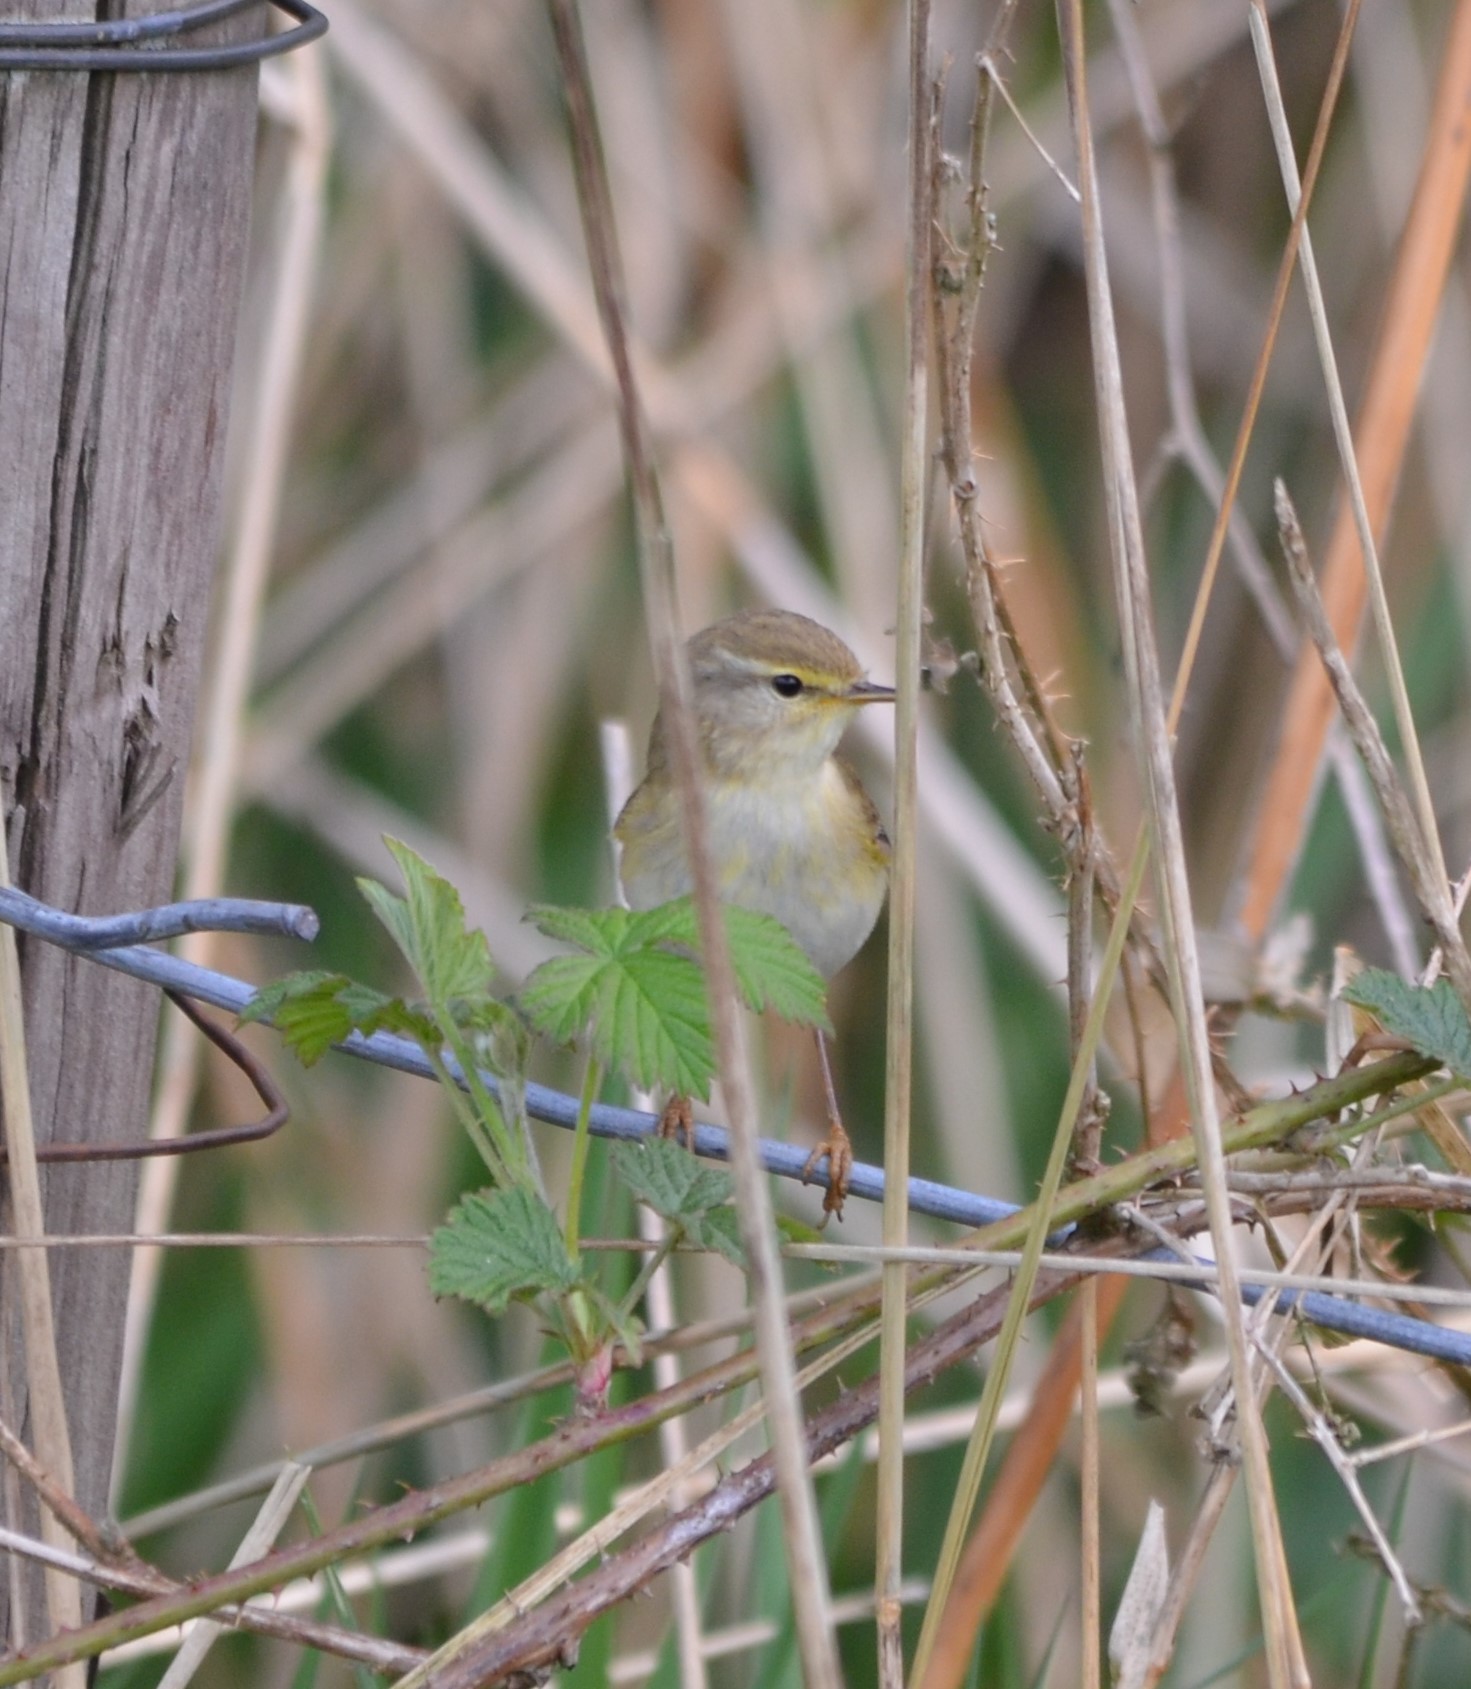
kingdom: Animalia
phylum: Chordata
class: Aves
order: Passeriformes
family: Phylloscopidae
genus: Phylloscopus
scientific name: Phylloscopus trochilus
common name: Willow warbler
